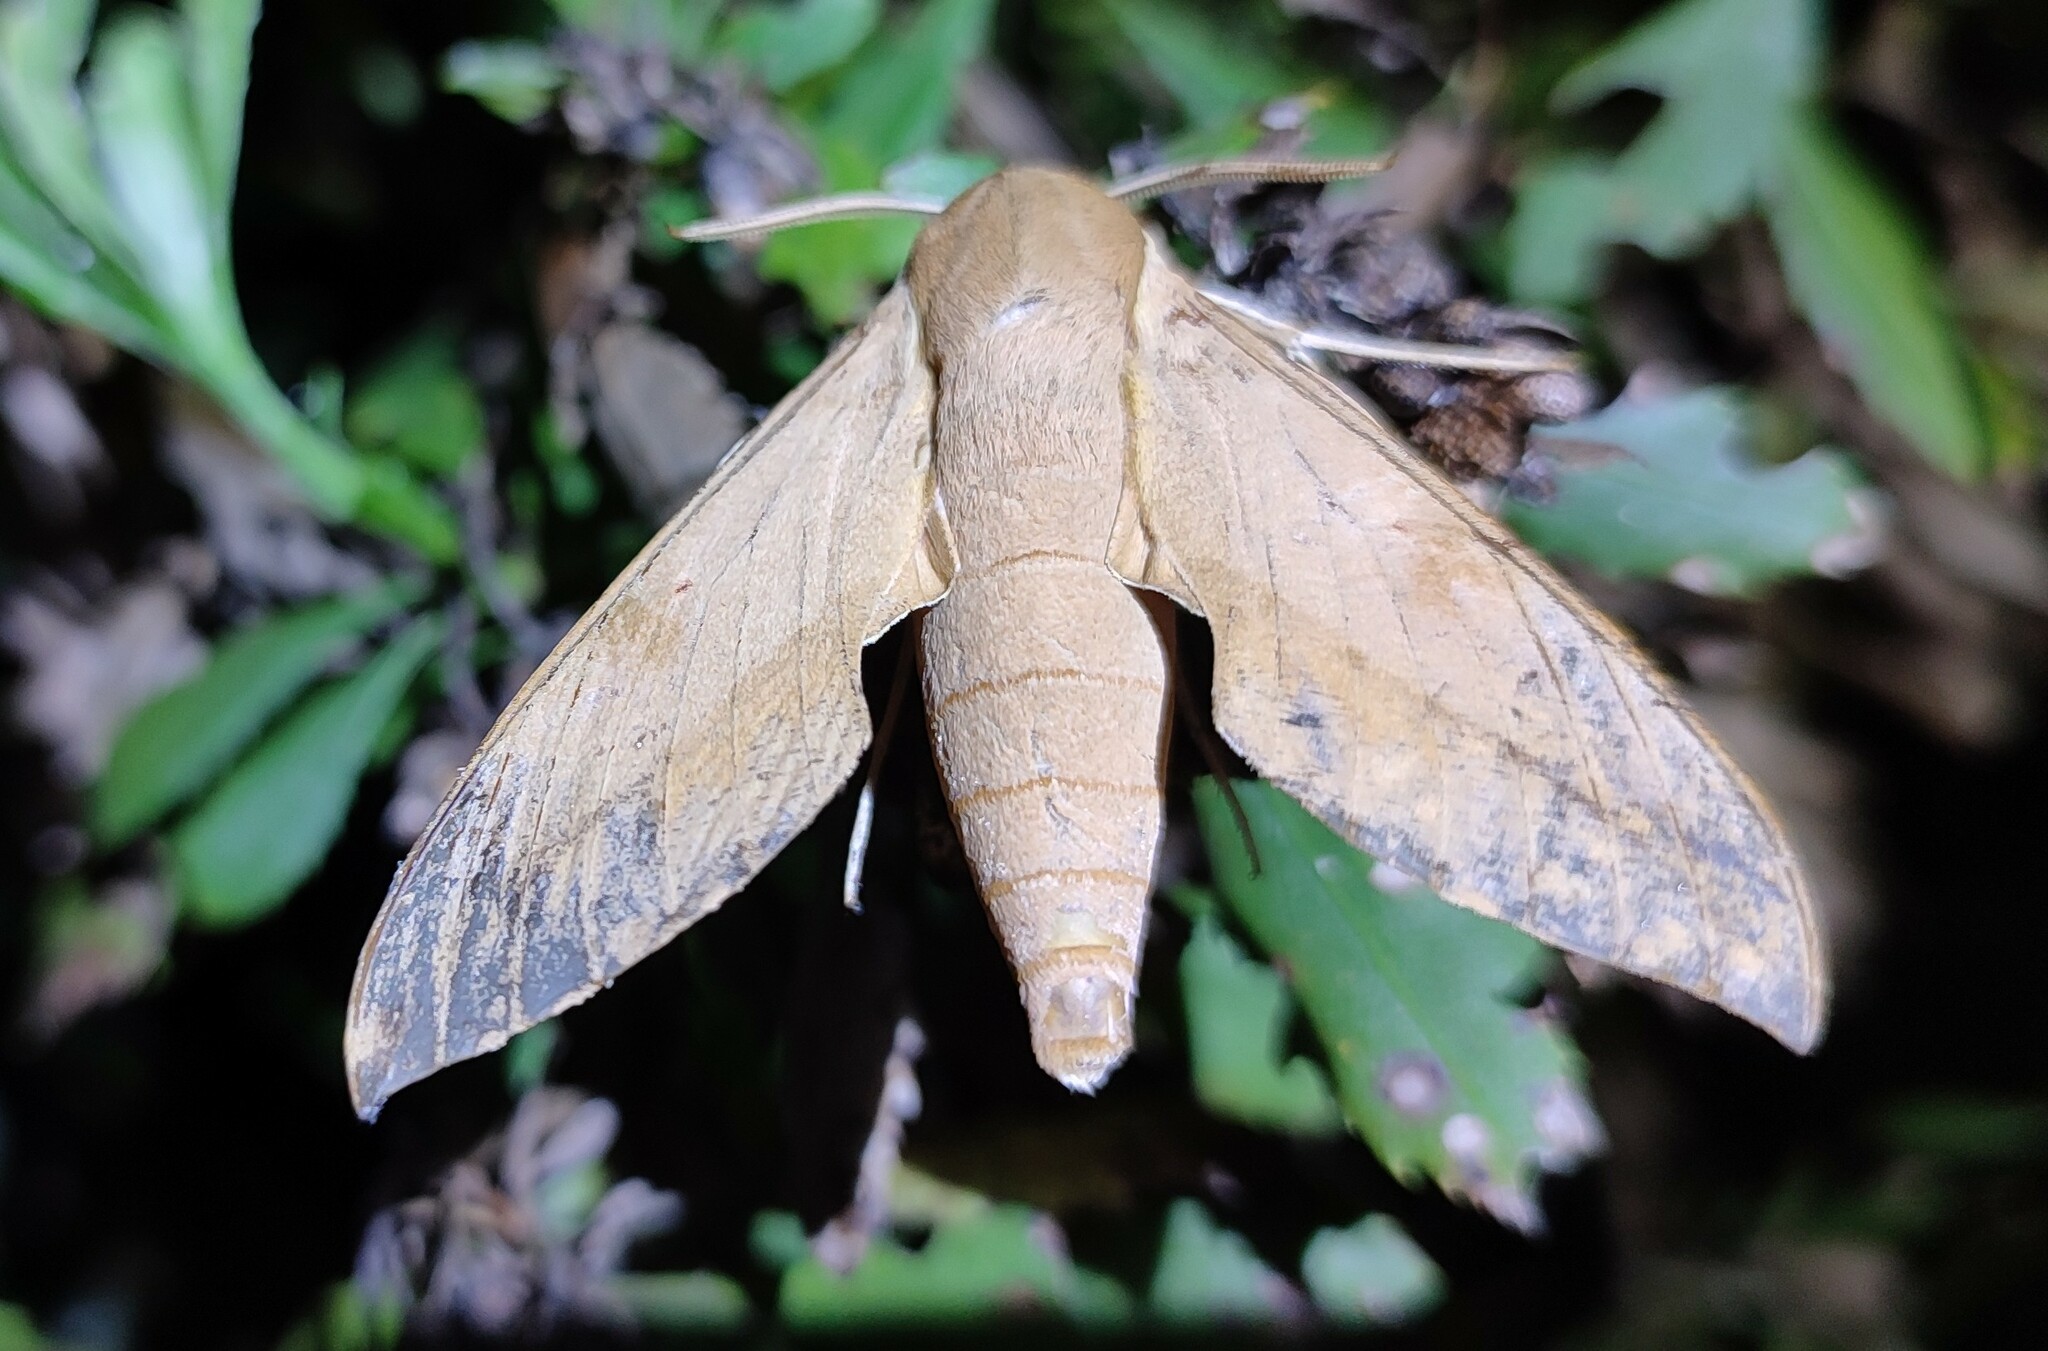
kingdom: Animalia
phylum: Arthropoda
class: Insecta
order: Lepidoptera
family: Sphingidae
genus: Theretra
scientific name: Theretra capensis
